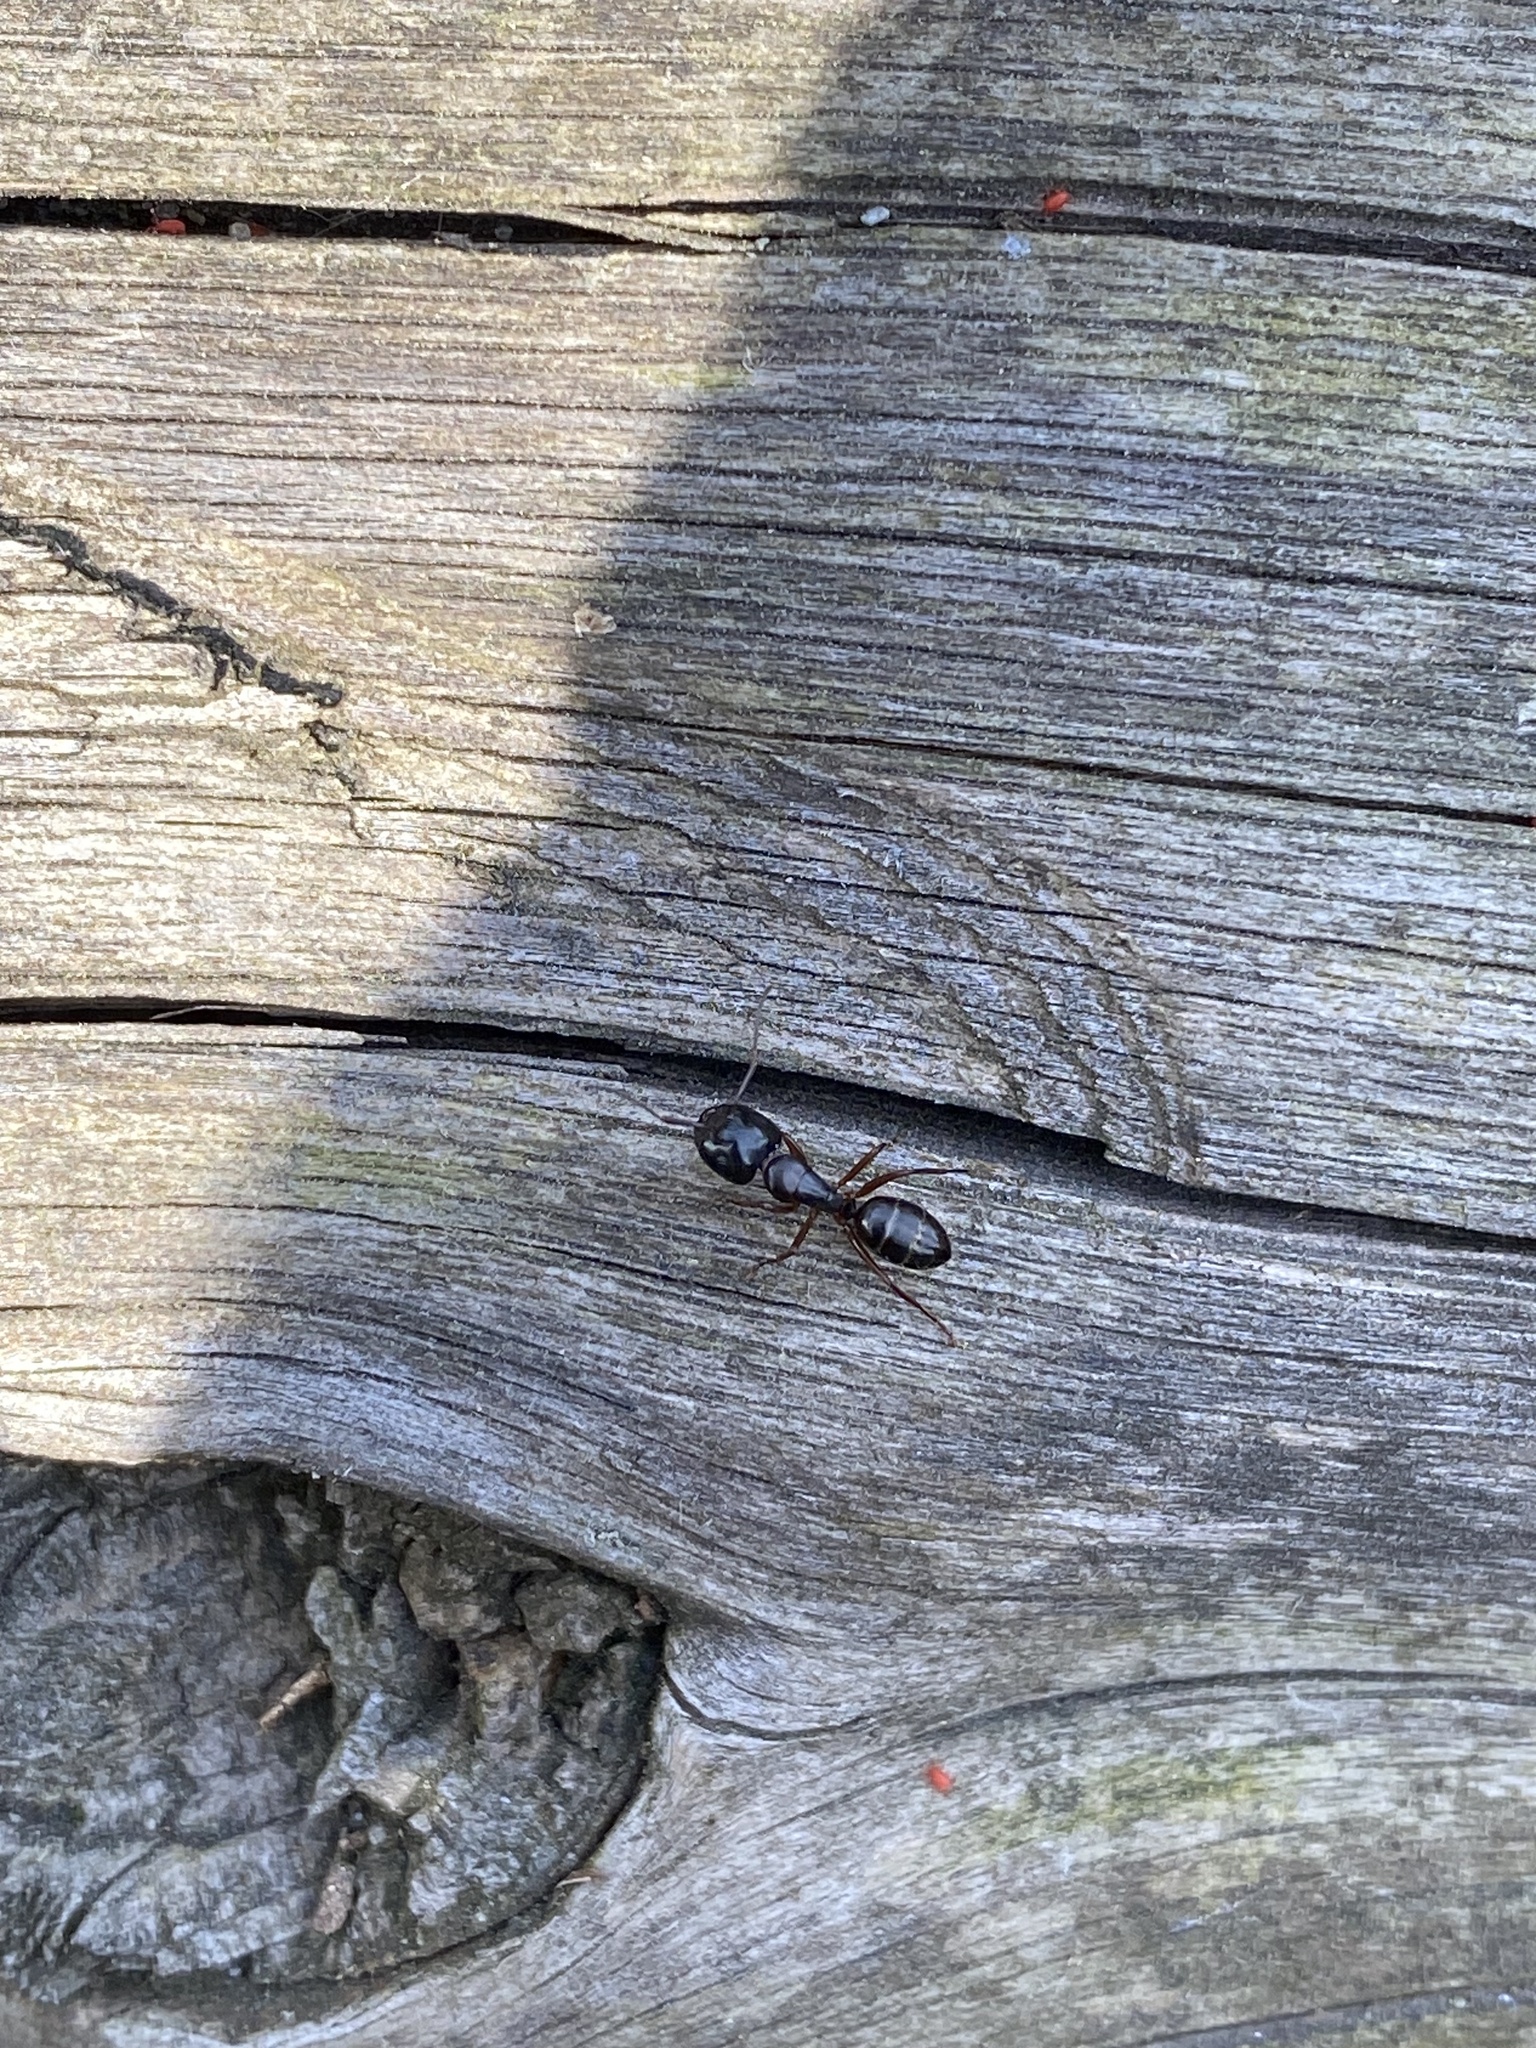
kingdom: Animalia
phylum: Arthropoda
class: Insecta
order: Hymenoptera
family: Formicidae
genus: Camponotus
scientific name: Camponotus fallax
